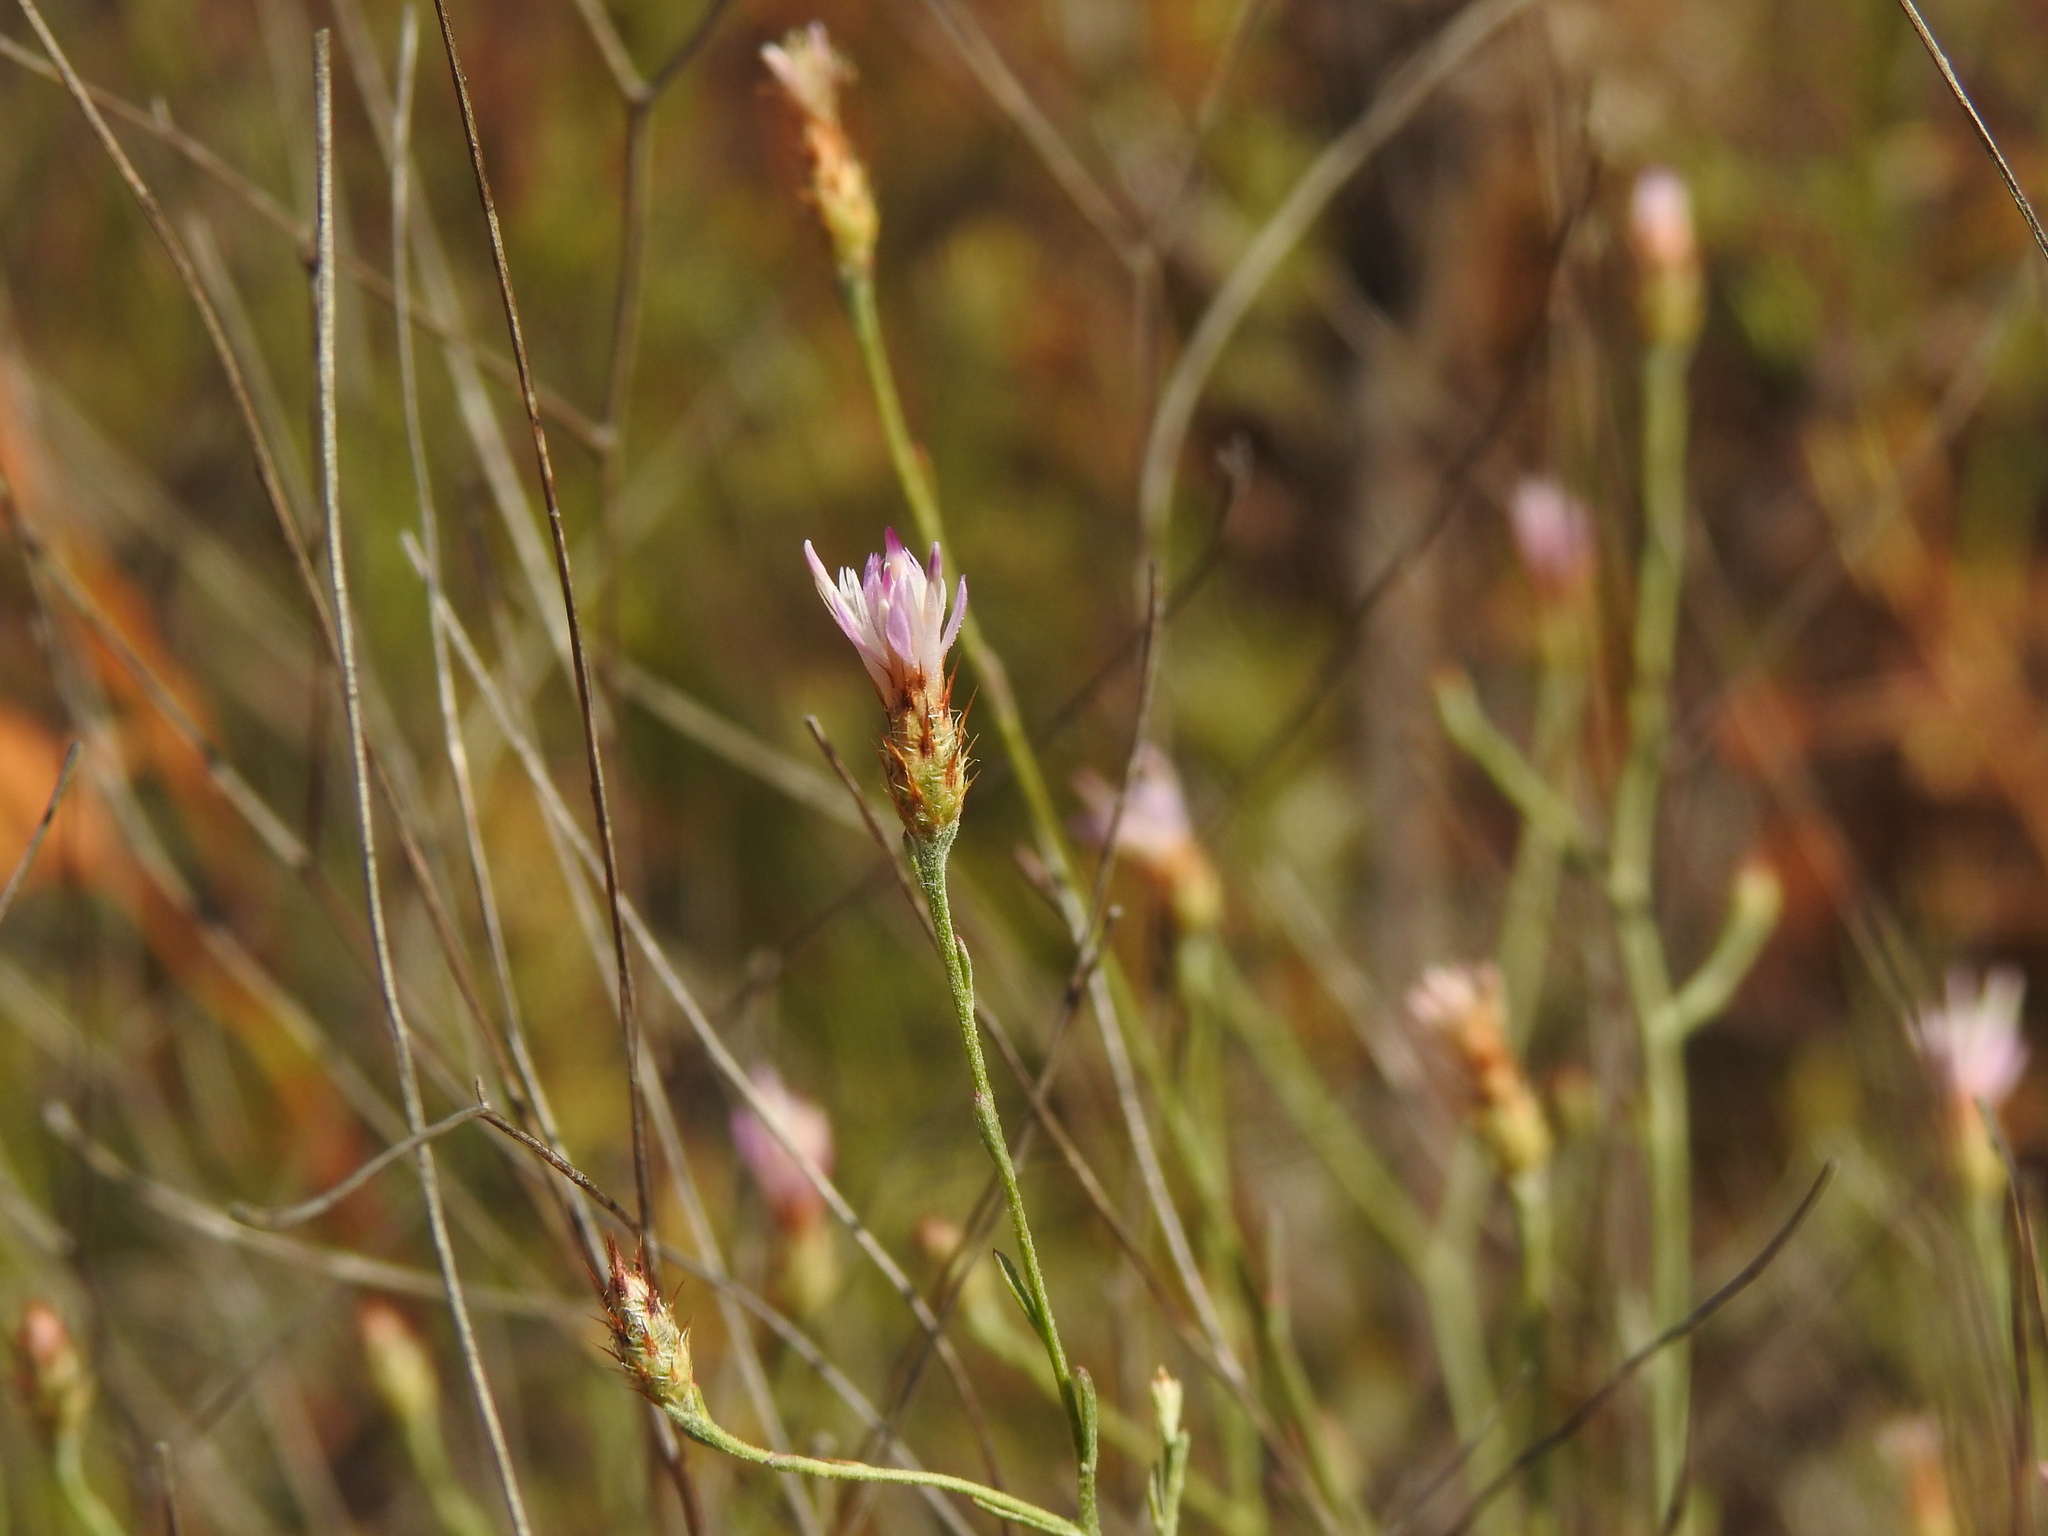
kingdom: Plantae
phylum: Tracheophyta
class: Magnoliopsida
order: Asterales
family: Asteraceae
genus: Centaurea
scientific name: Centaurea cordubensis
